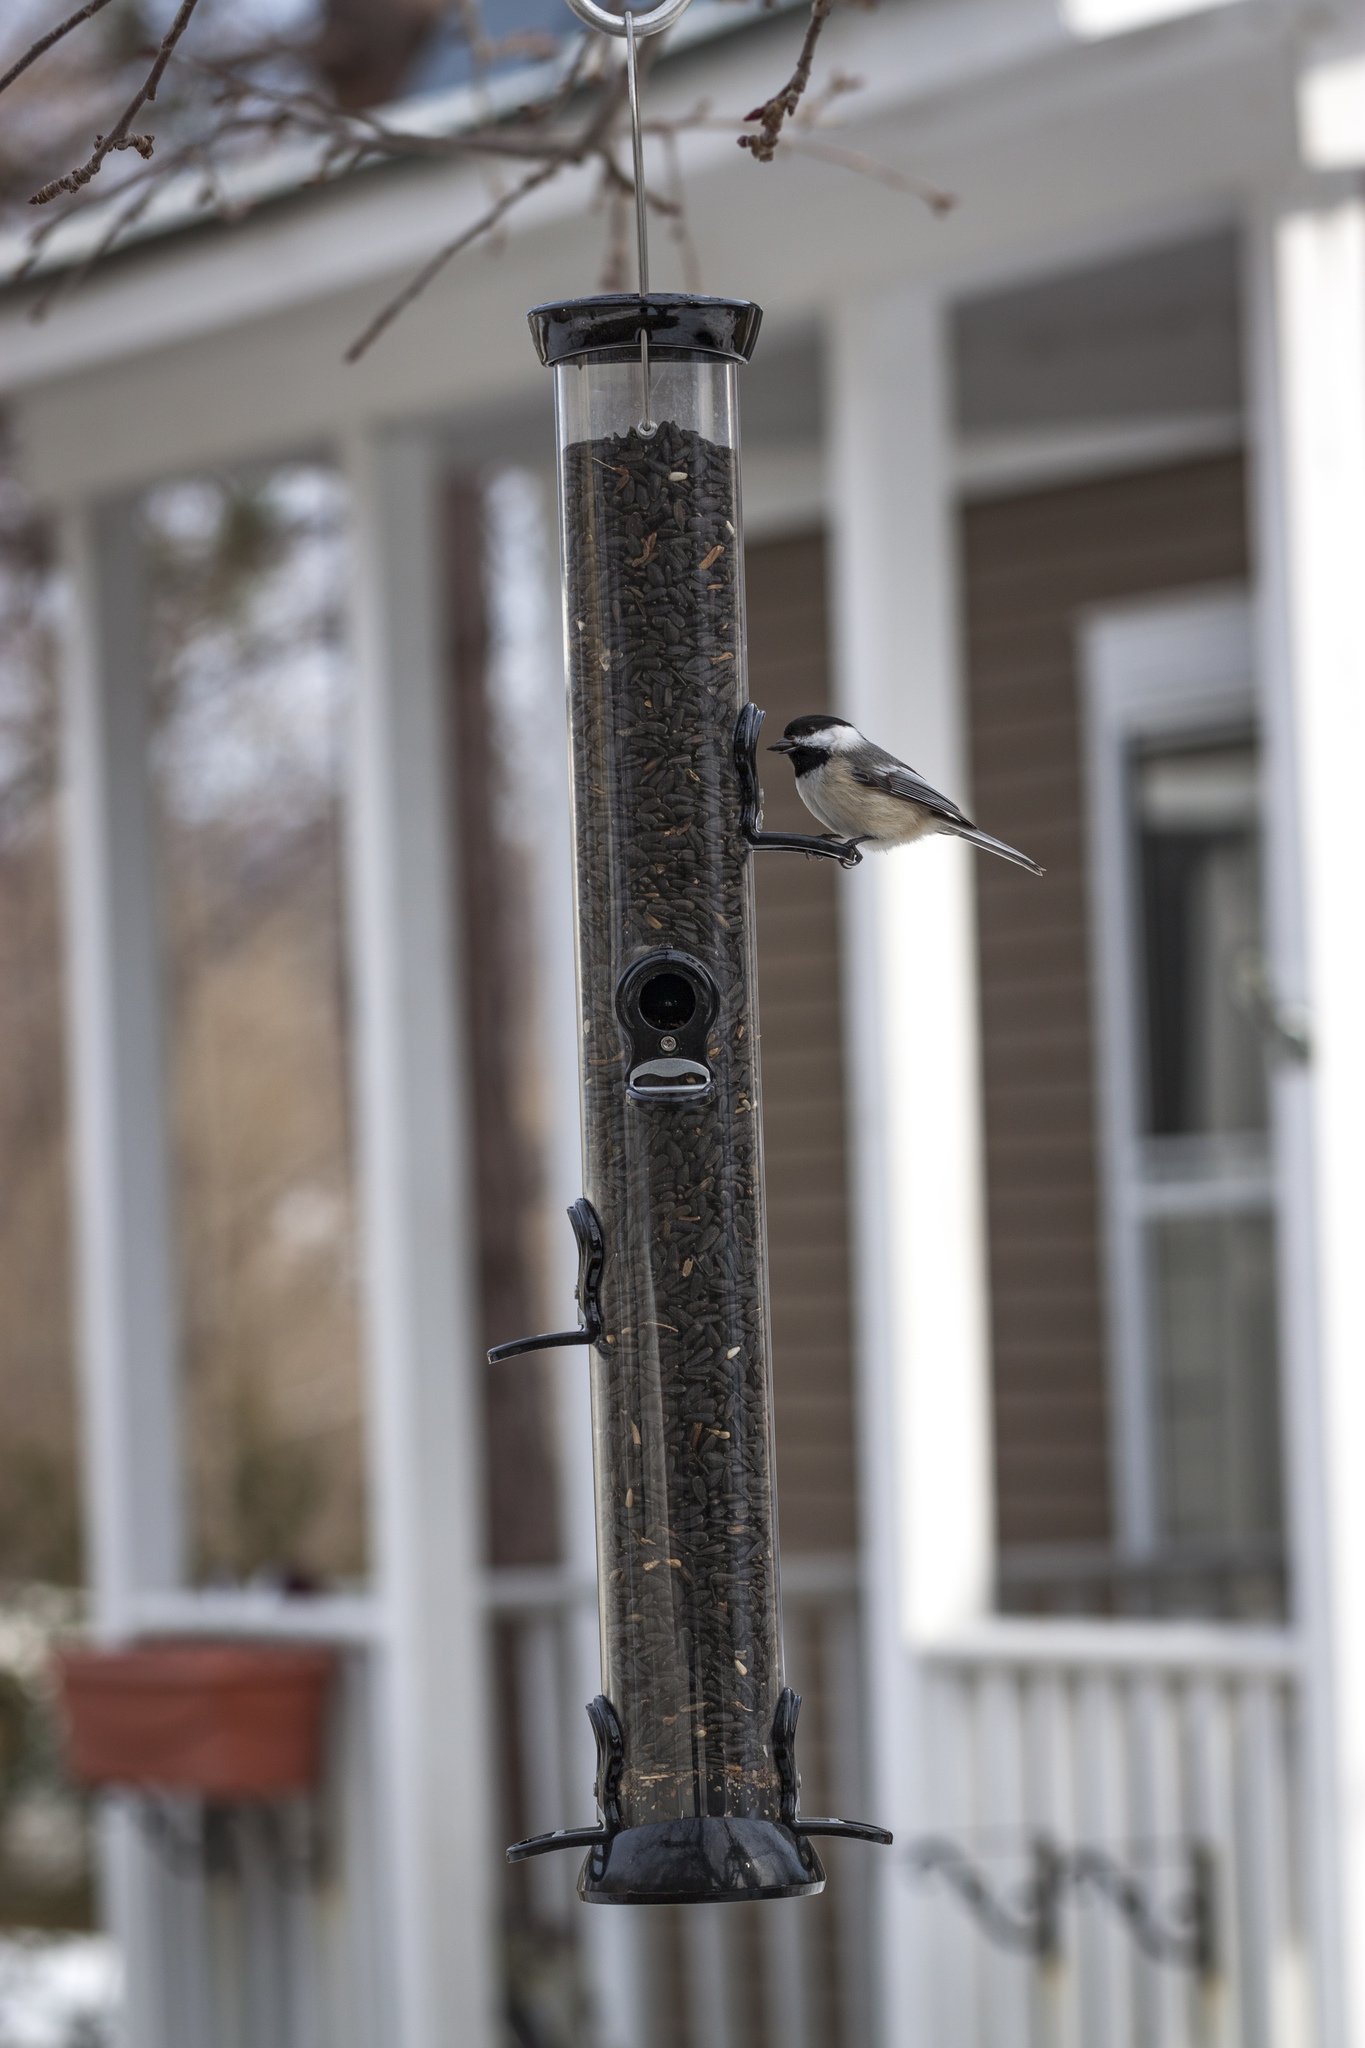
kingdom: Animalia
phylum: Chordata
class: Aves
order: Passeriformes
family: Paridae
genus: Poecile
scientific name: Poecile atricapillus
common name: Black-capped chickadee
